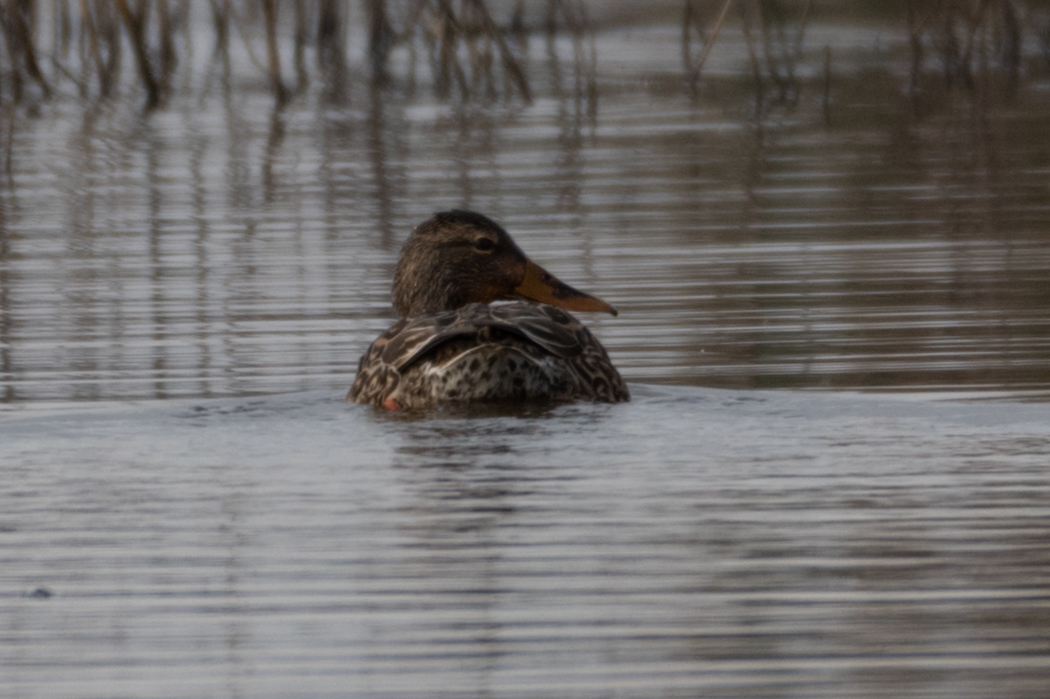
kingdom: Animalia
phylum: Chordata
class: Aves
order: Anseriformes
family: Anatidae
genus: Spatula
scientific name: Spatula clypeata
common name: Northern shoveler
